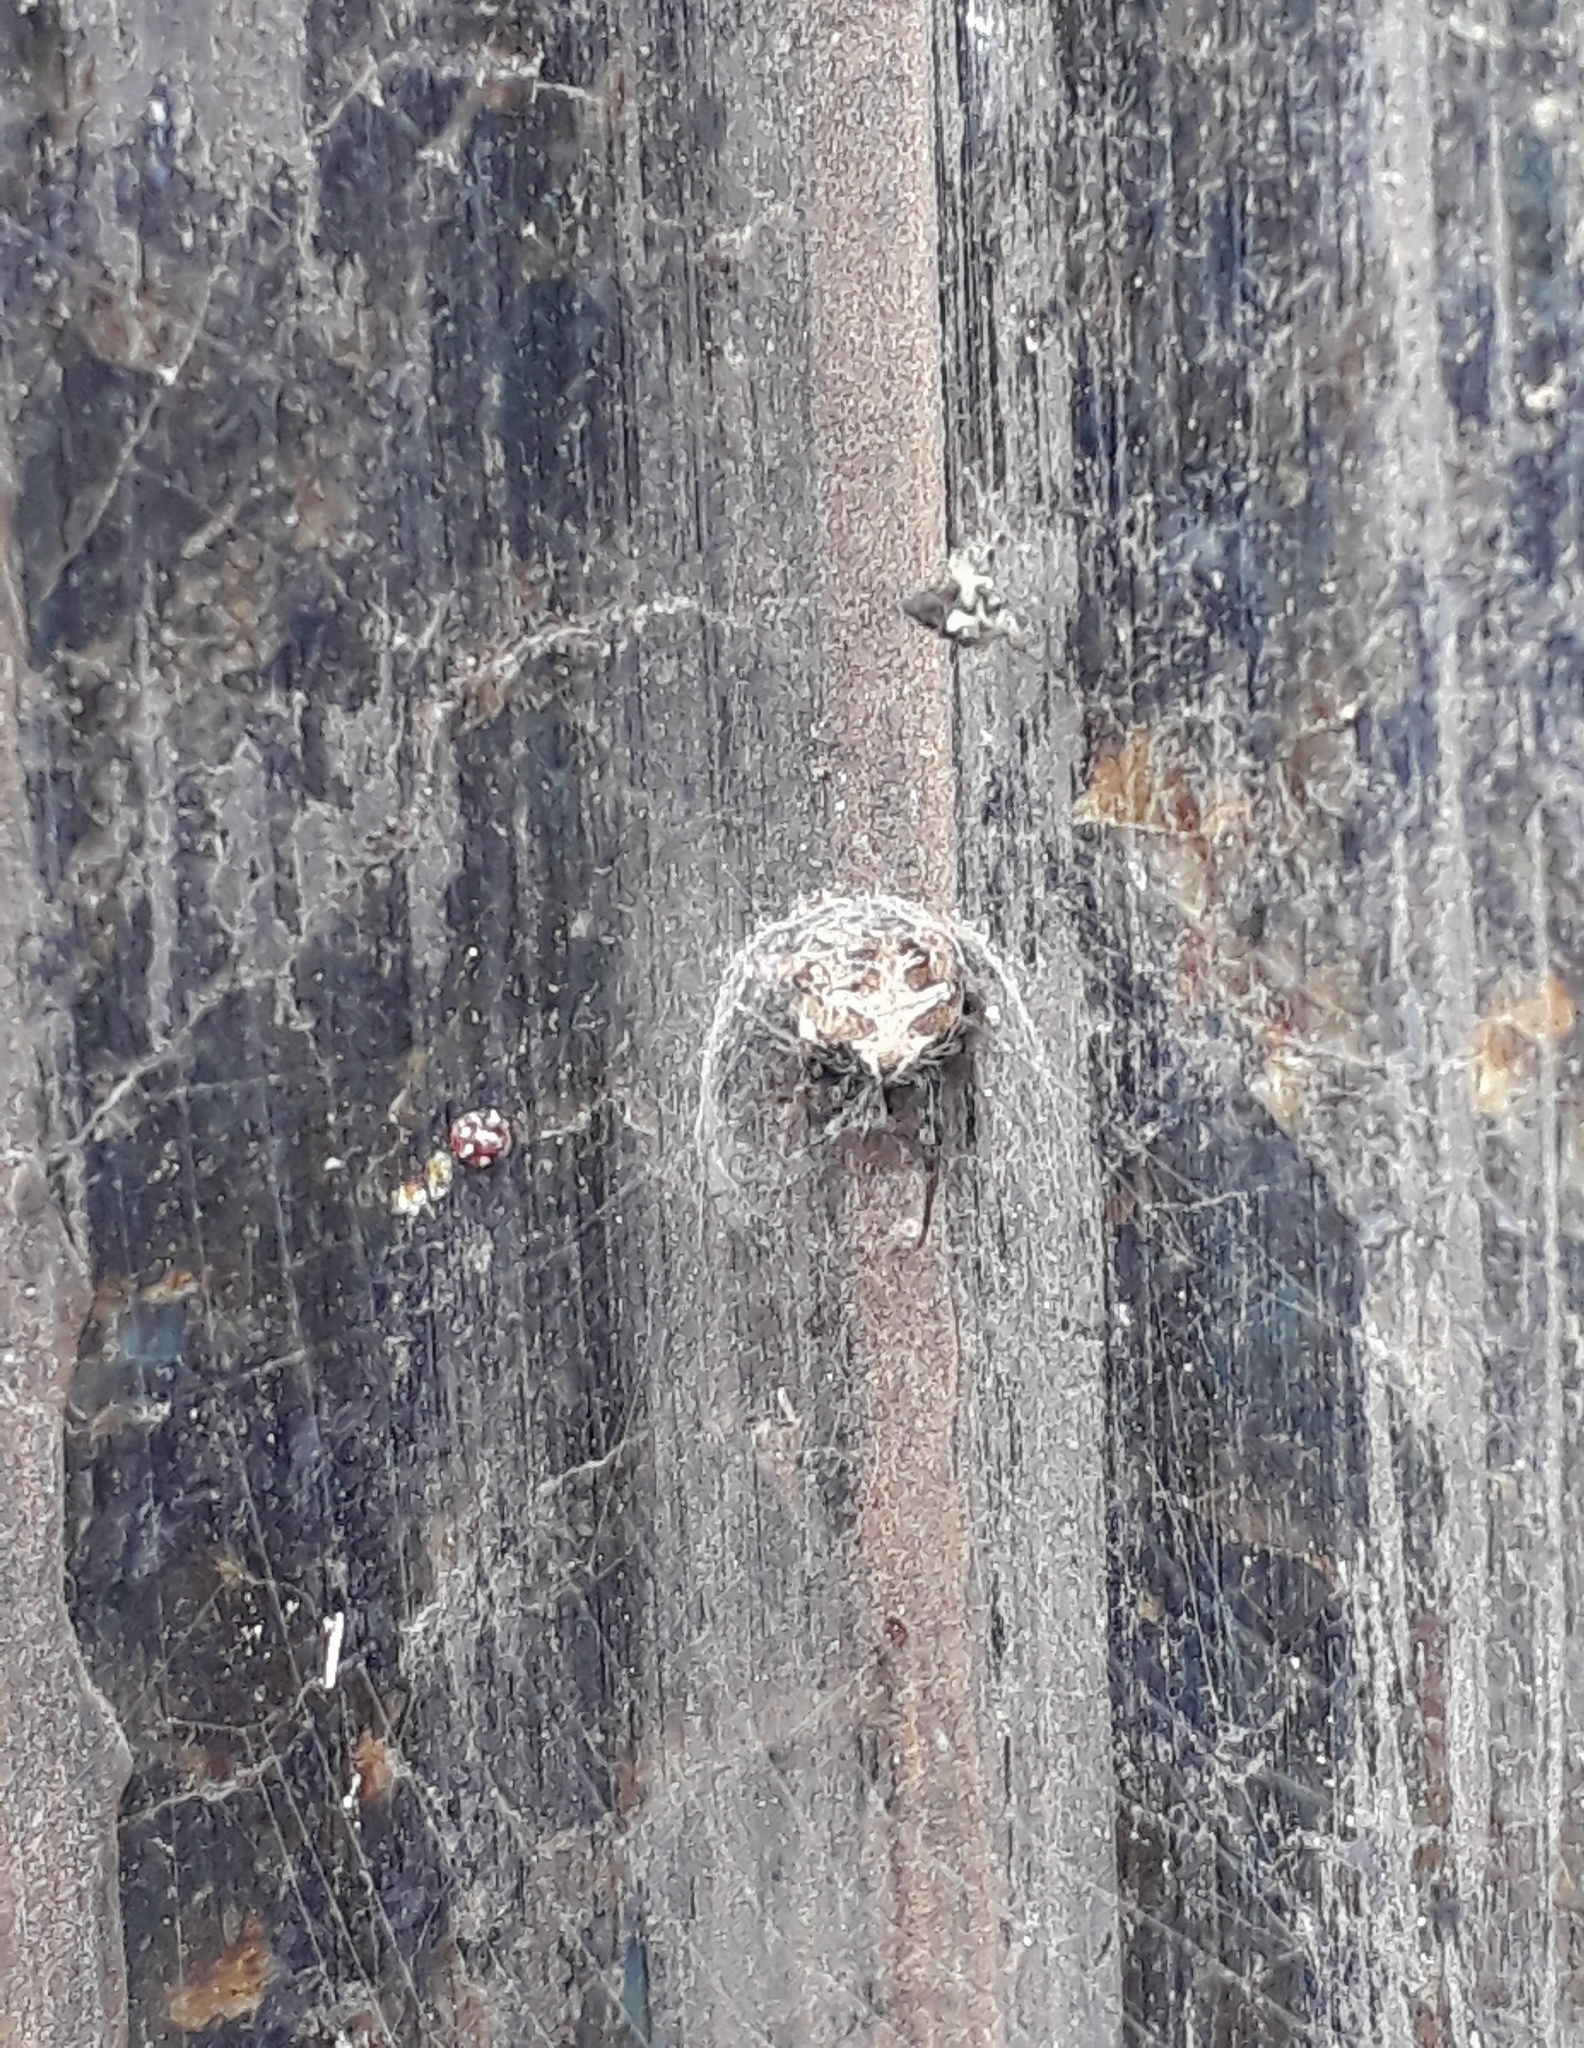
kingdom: Animalia
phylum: Arthropoda
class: Arachnida
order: Araneae
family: Araneidae
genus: Metepeira
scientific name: Metepeira
